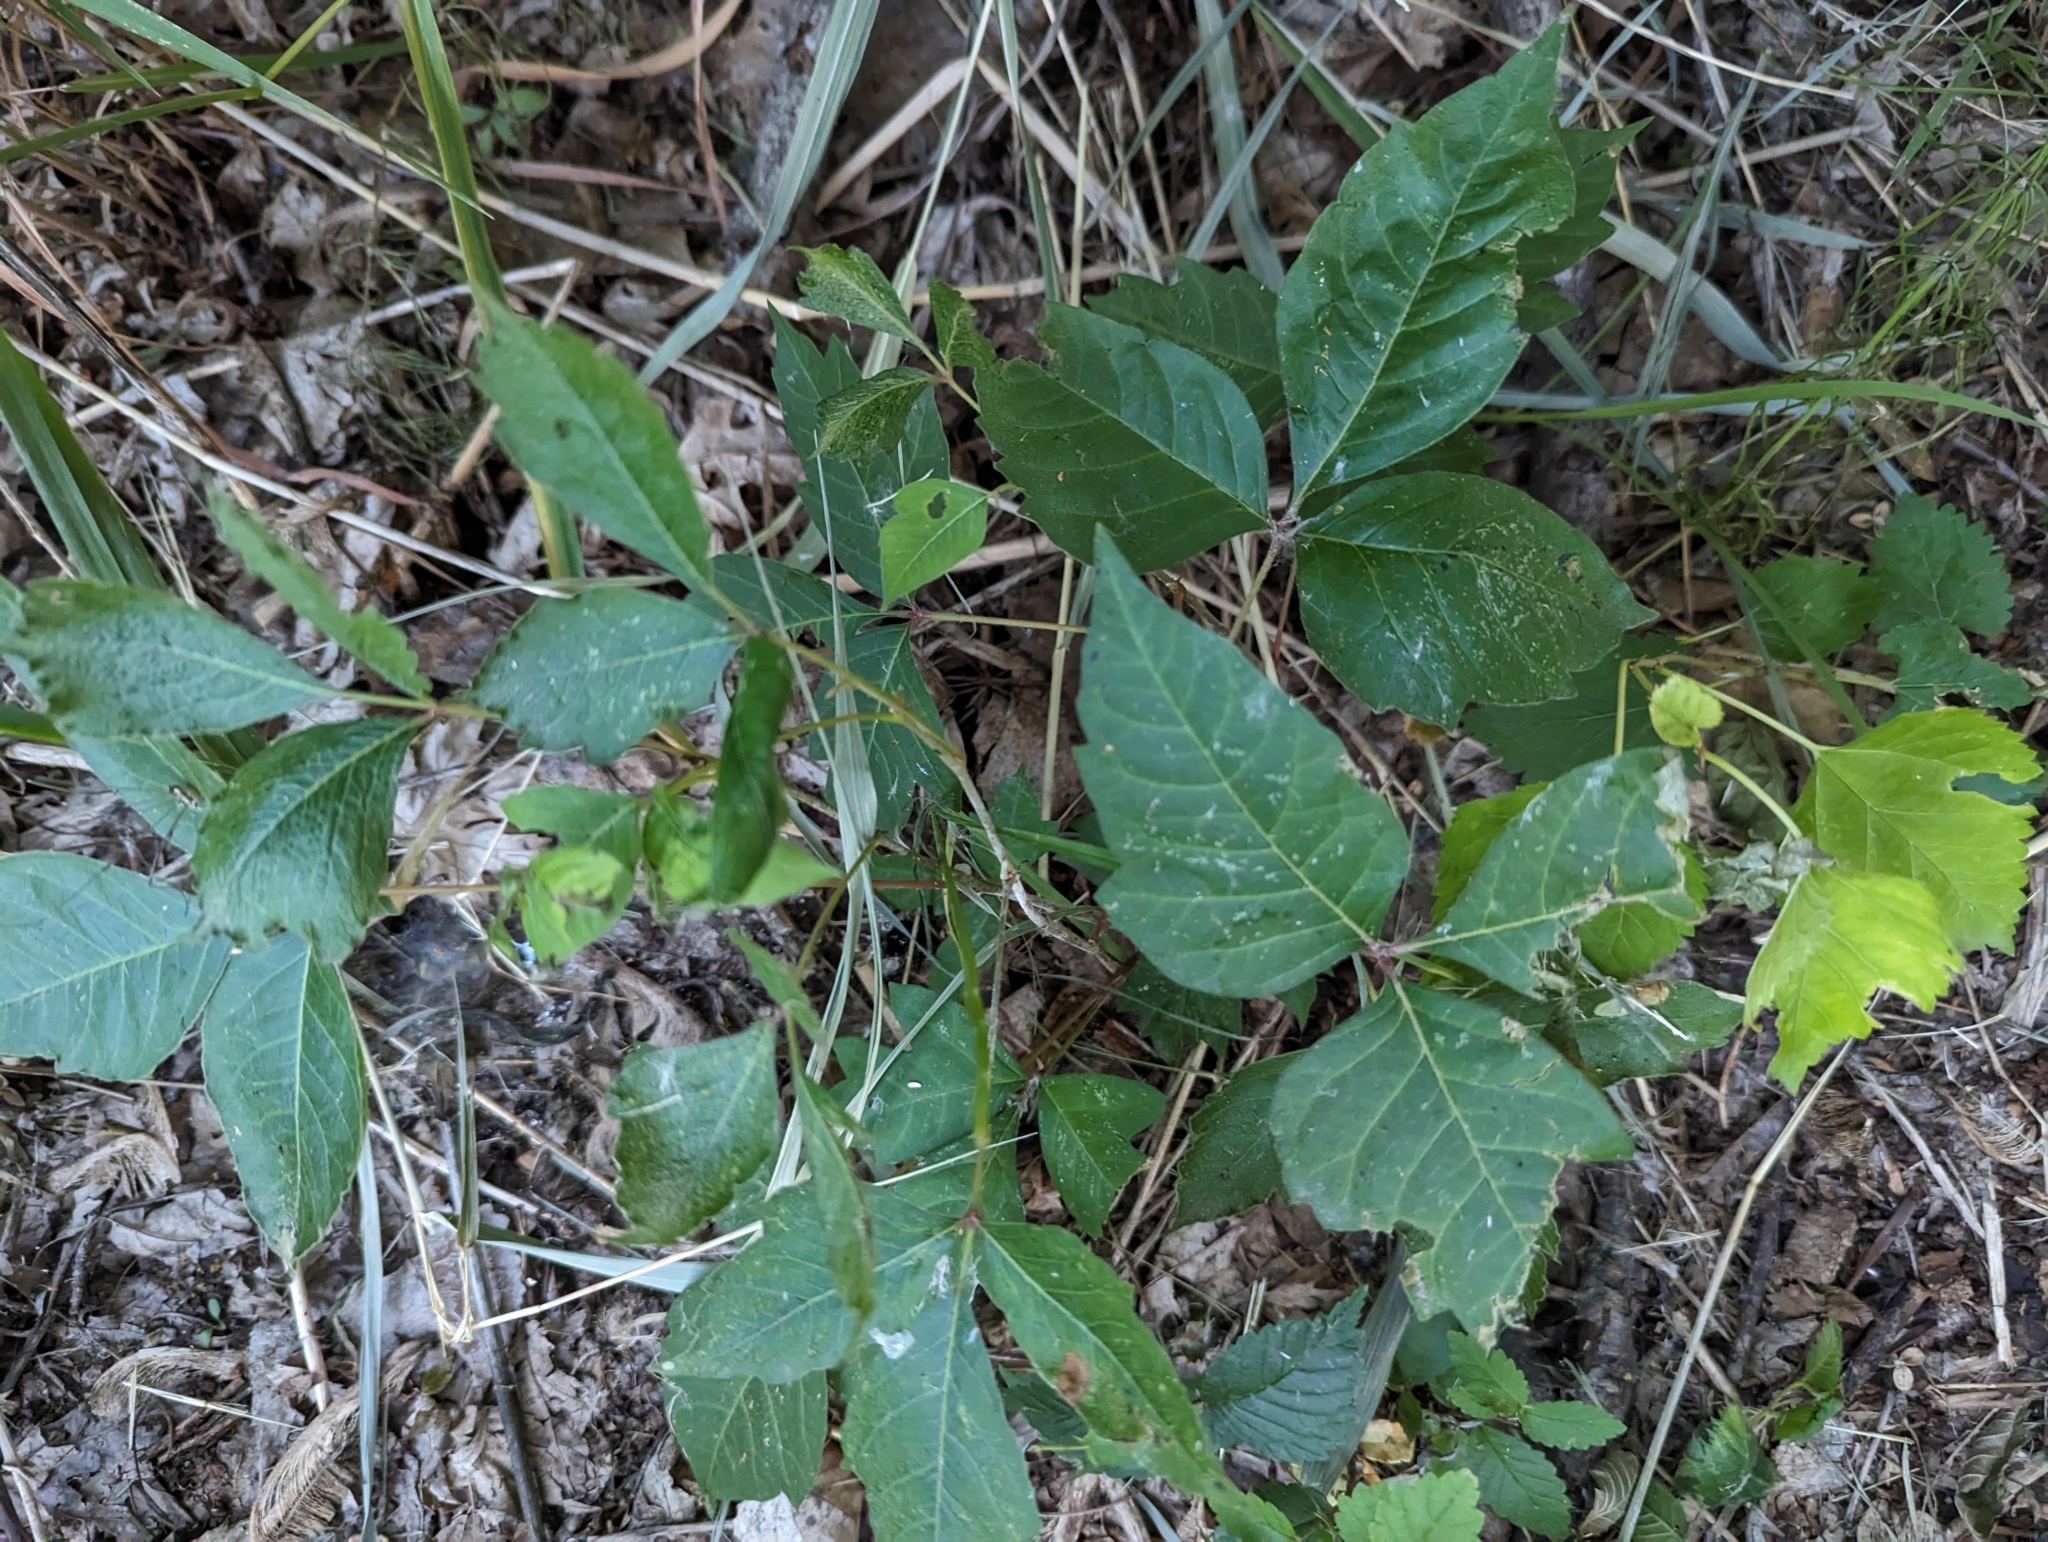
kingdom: Plantae
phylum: Tracheophyta
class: Magnoliopsida
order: Sapindales
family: Anacardiaceae
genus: Toxicodendron
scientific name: Toxicodendron radicans
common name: Poison ivy
